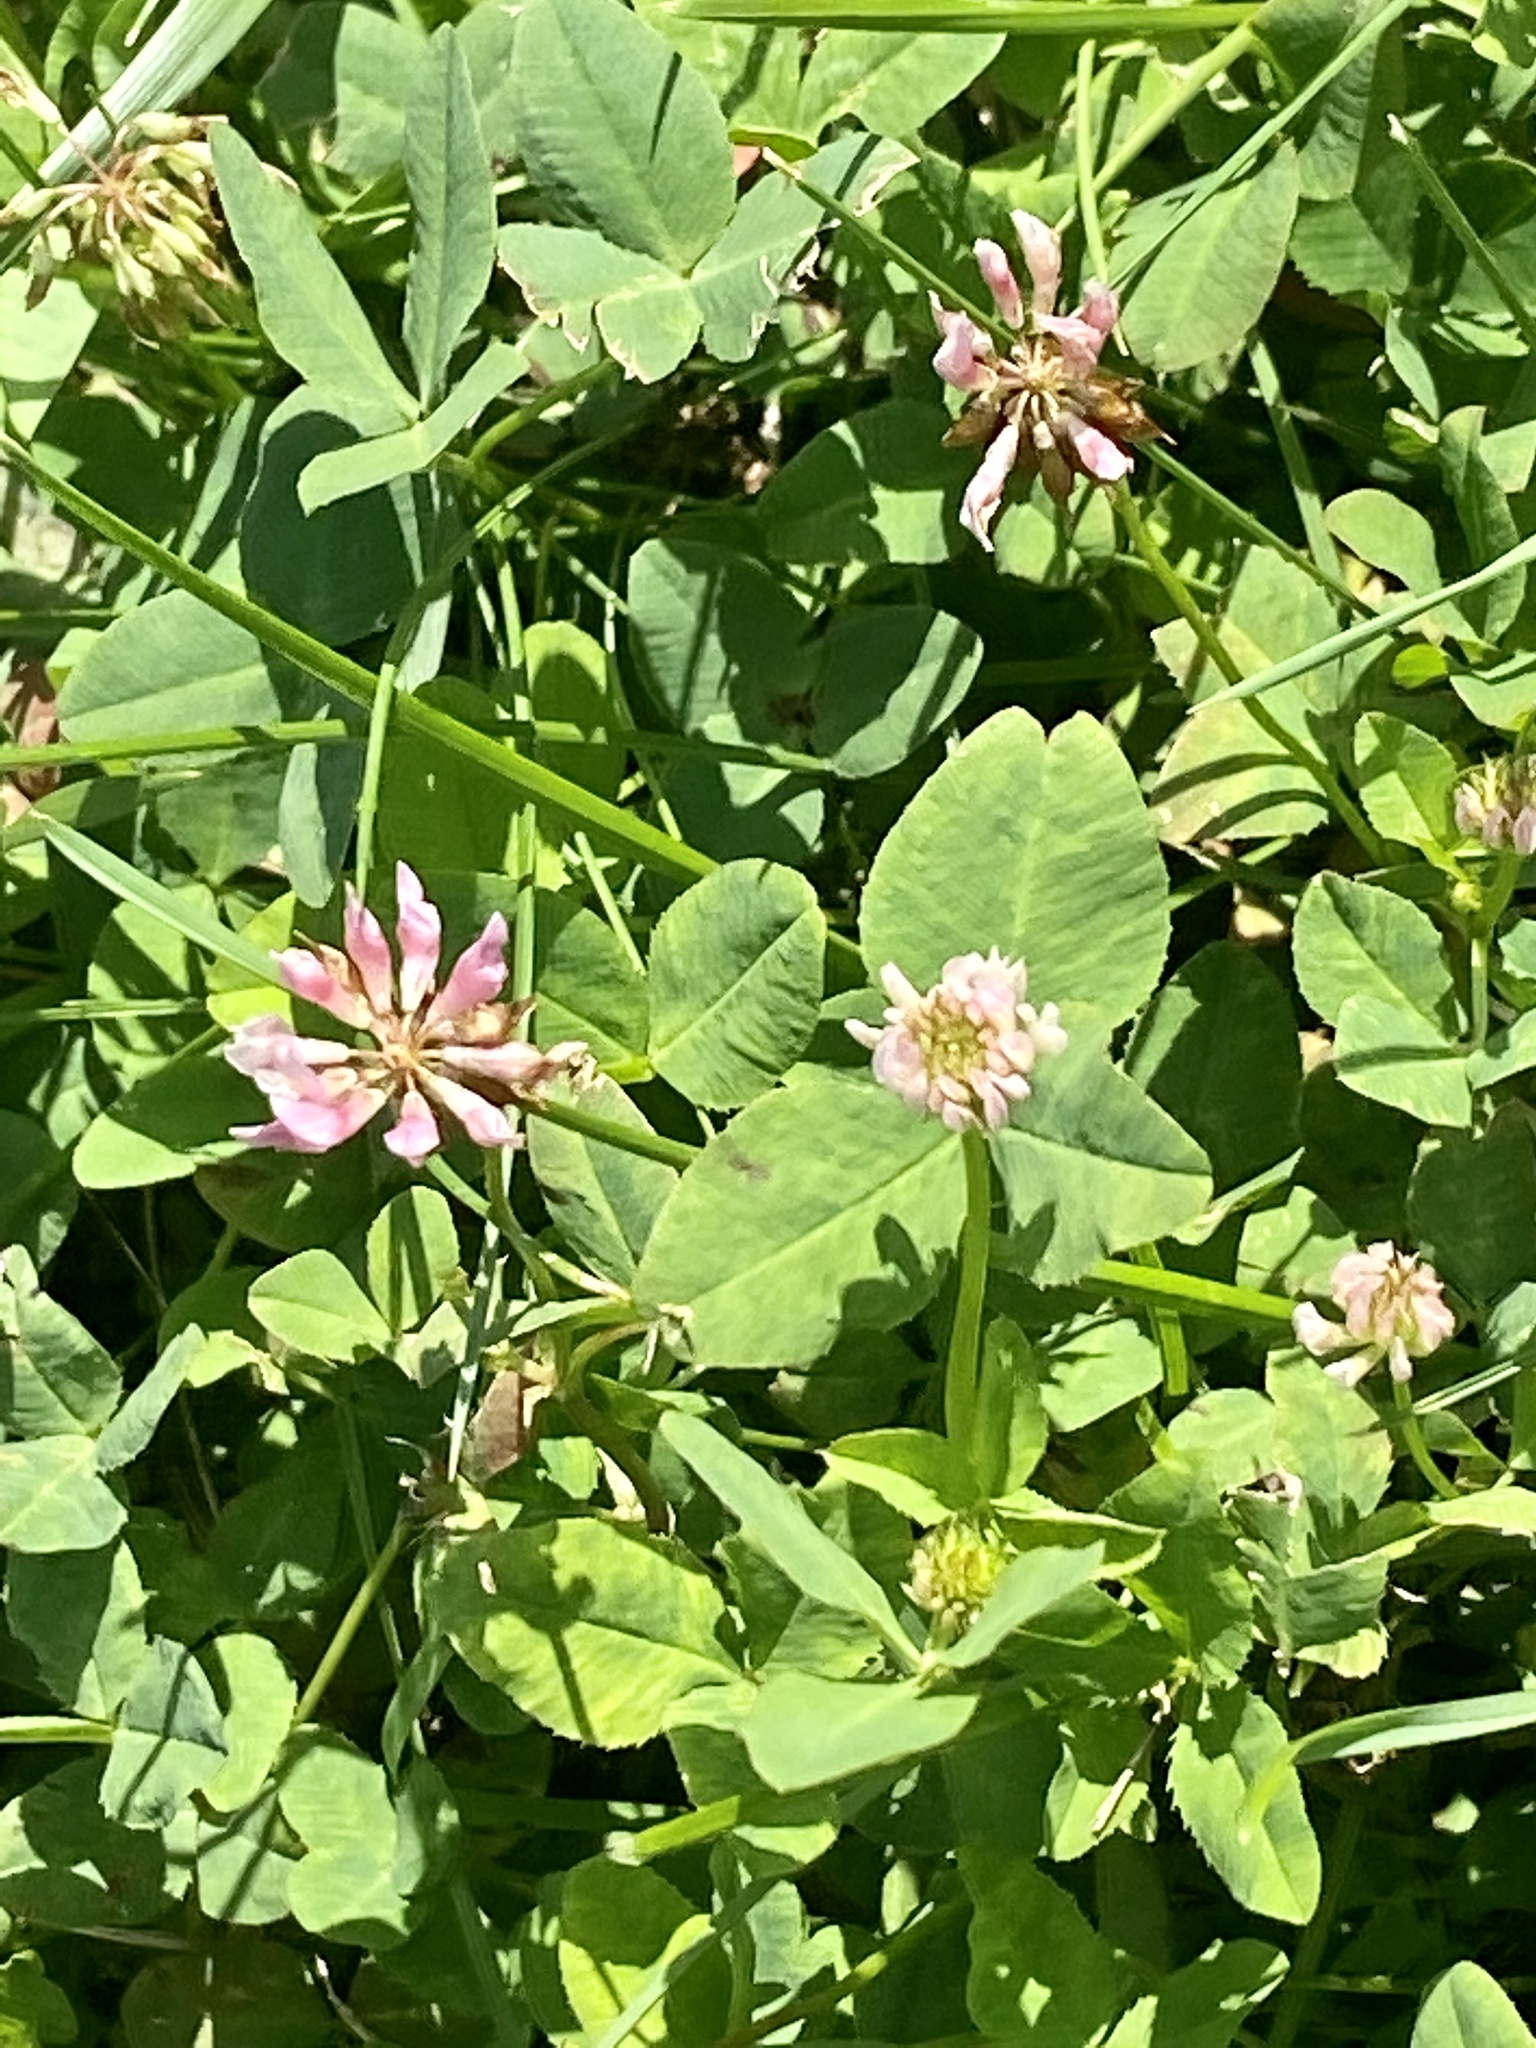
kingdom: Plantae
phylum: Tracheophyta
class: Magnoliopsida
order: Fabales
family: Fabaceae
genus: Trifolium
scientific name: Trifolium hybridum
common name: Alsike clover
